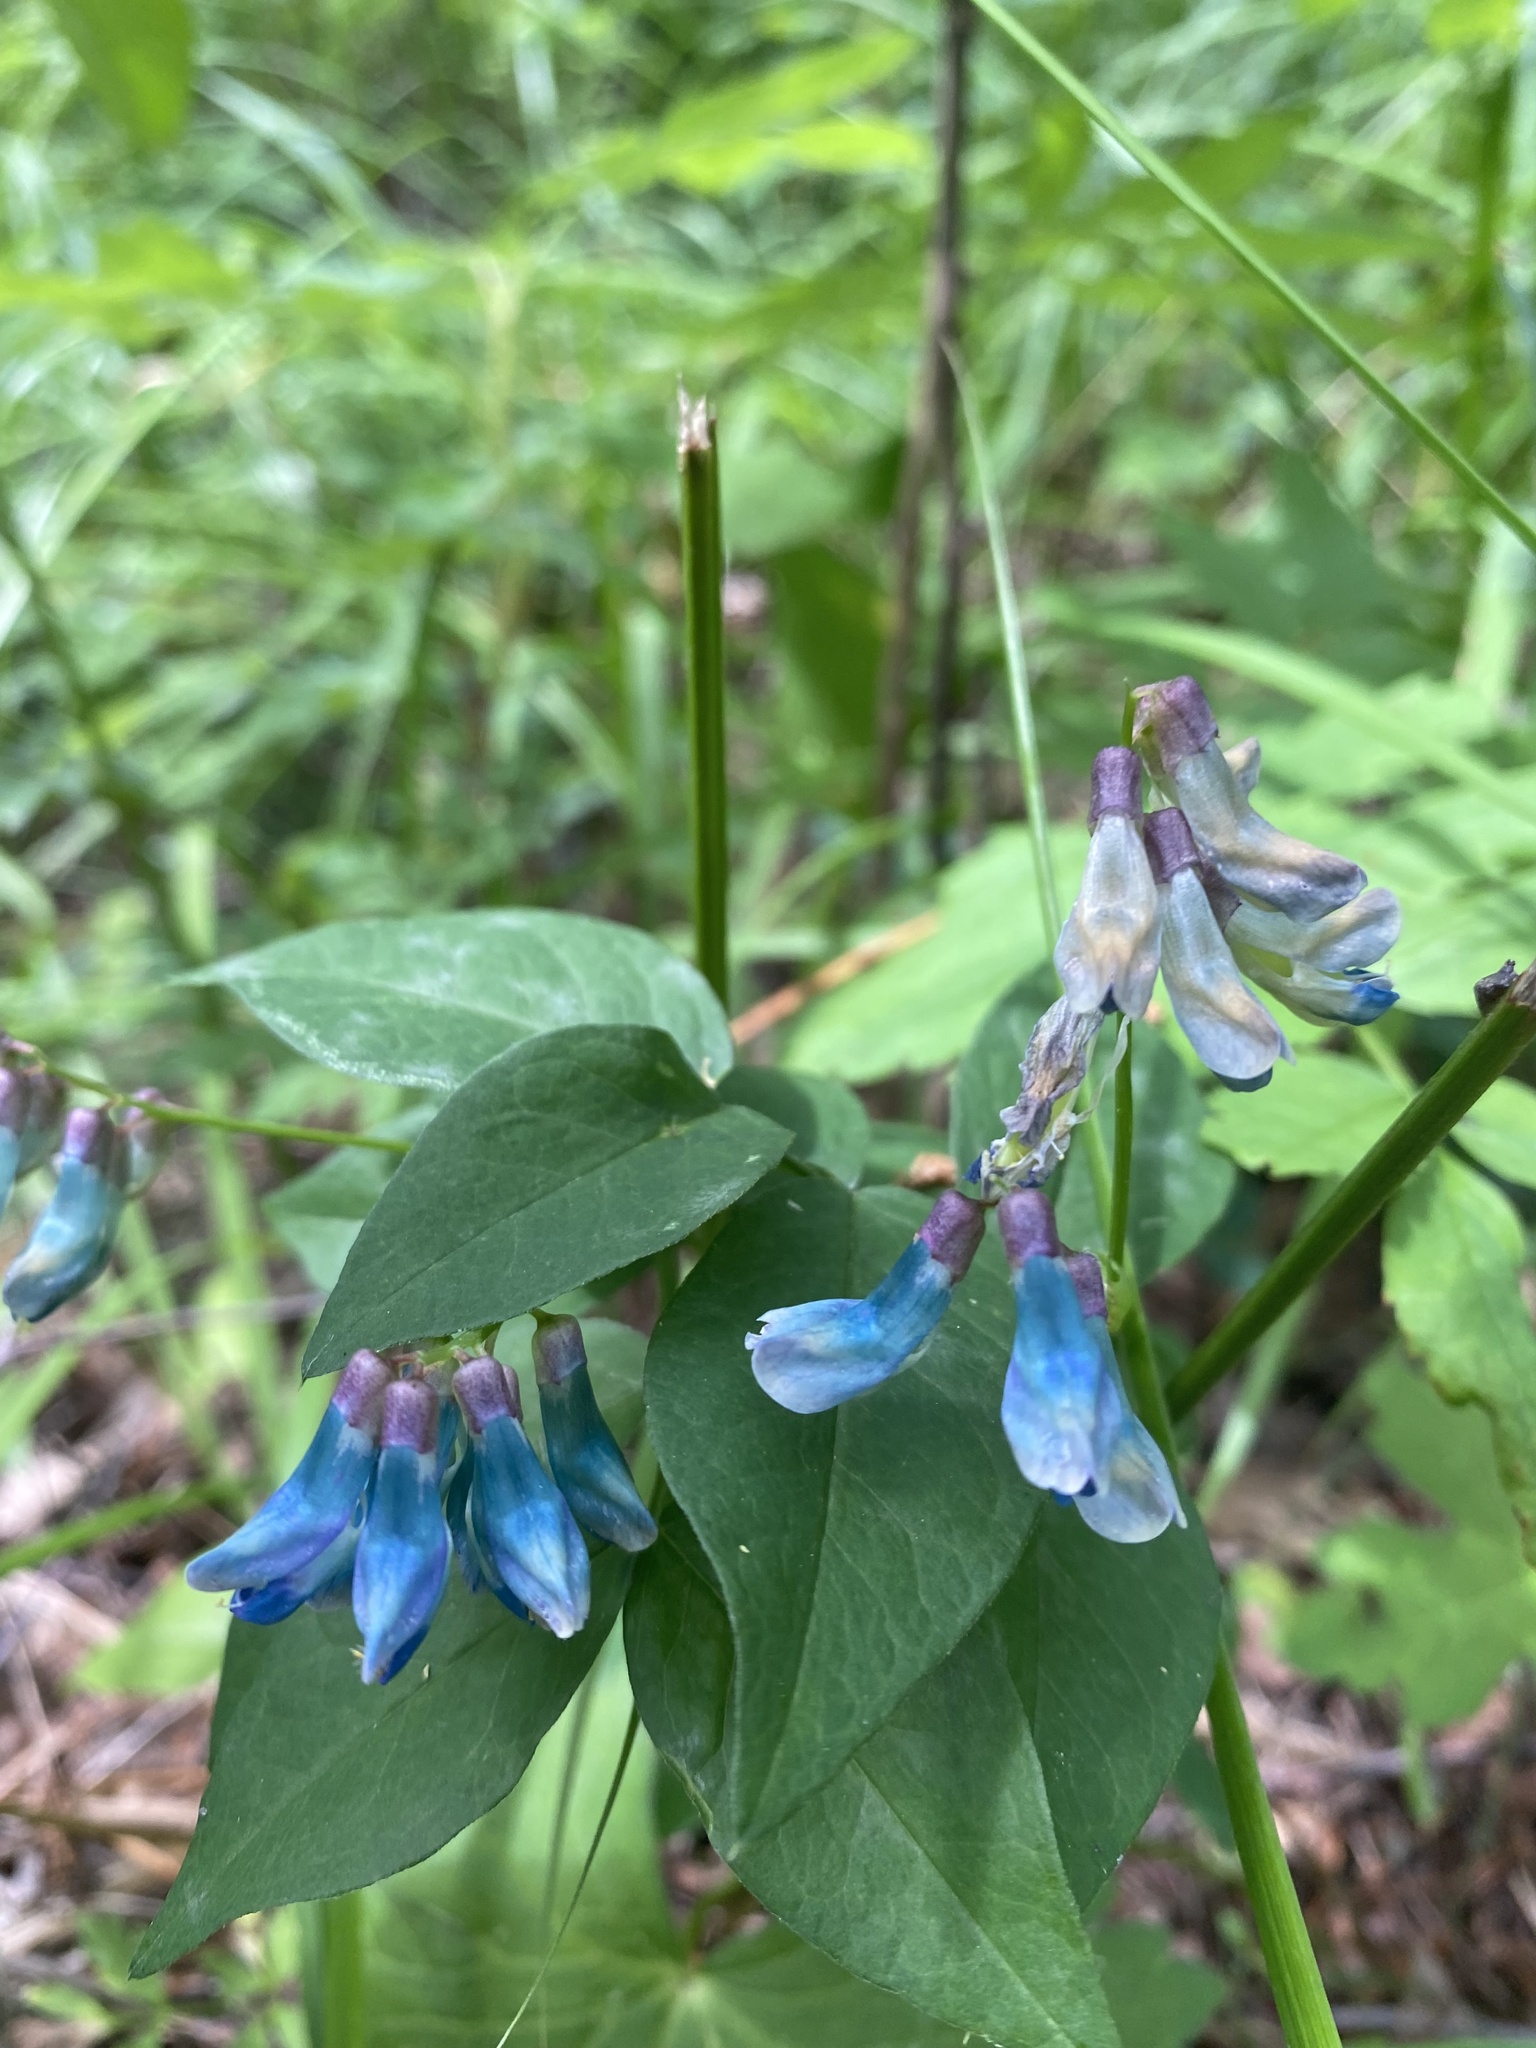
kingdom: Plantae
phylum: Tracheophyta
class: Magnoliopsida
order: Fabales
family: Fabaceae
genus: Vicia
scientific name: Vicia ramuliflora
